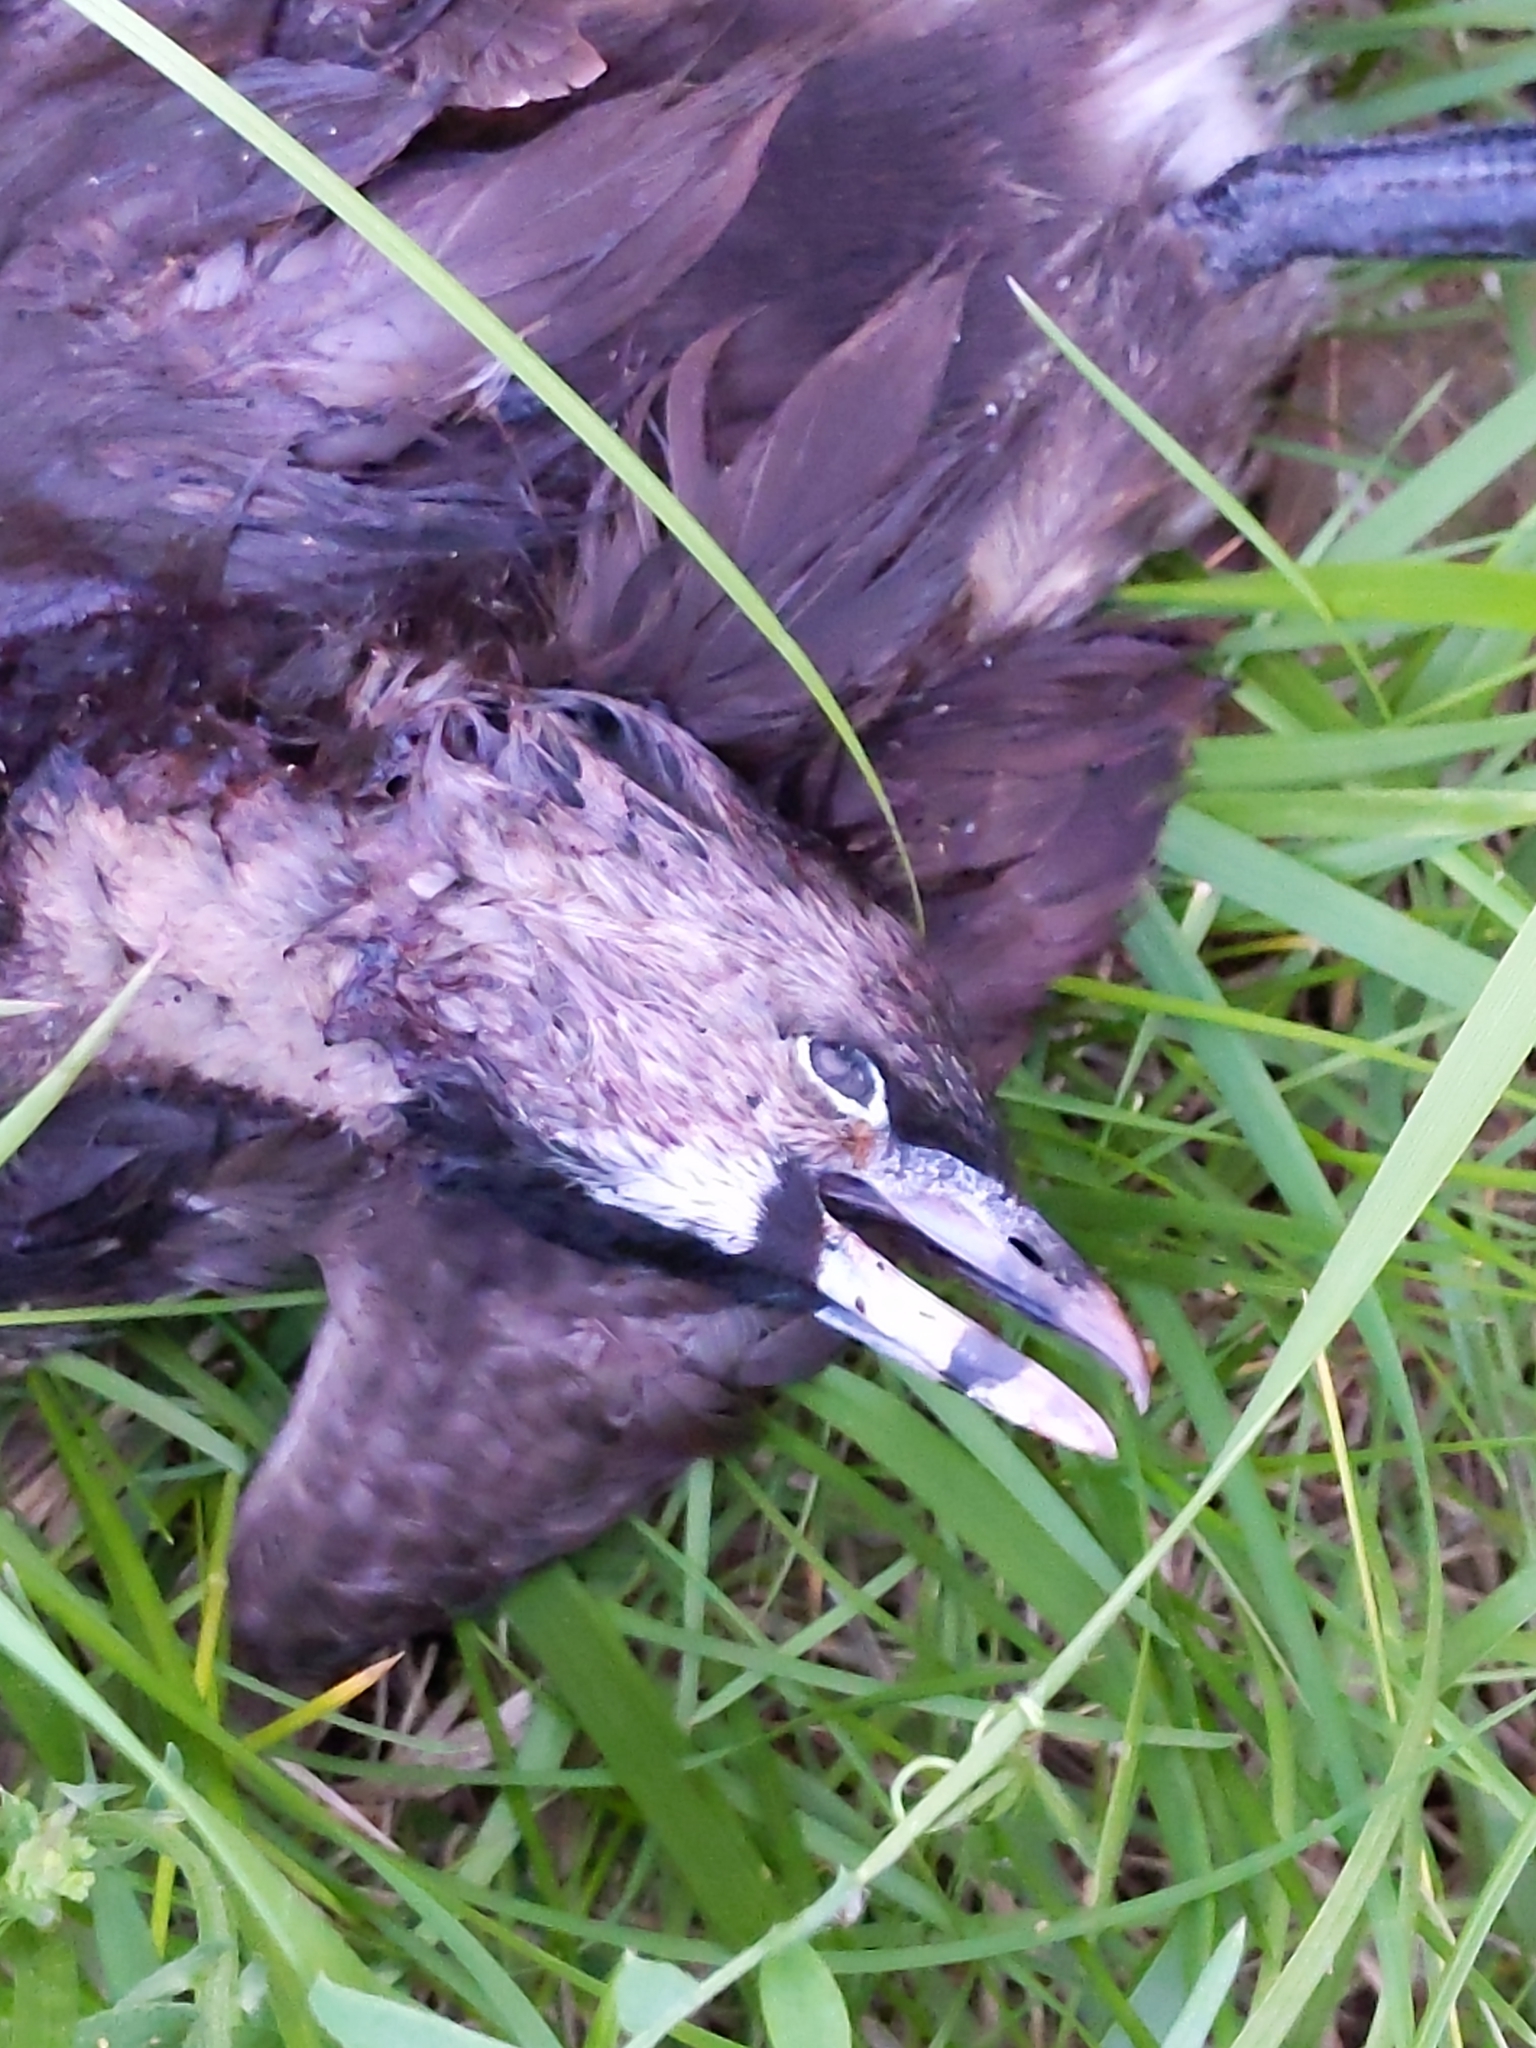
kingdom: Animalia
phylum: Chordata
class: Aves
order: Podicipediformes
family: Podicipedidae
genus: Podilymbus
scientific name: Podilymbus podiceps
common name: Pied-billed grebe
